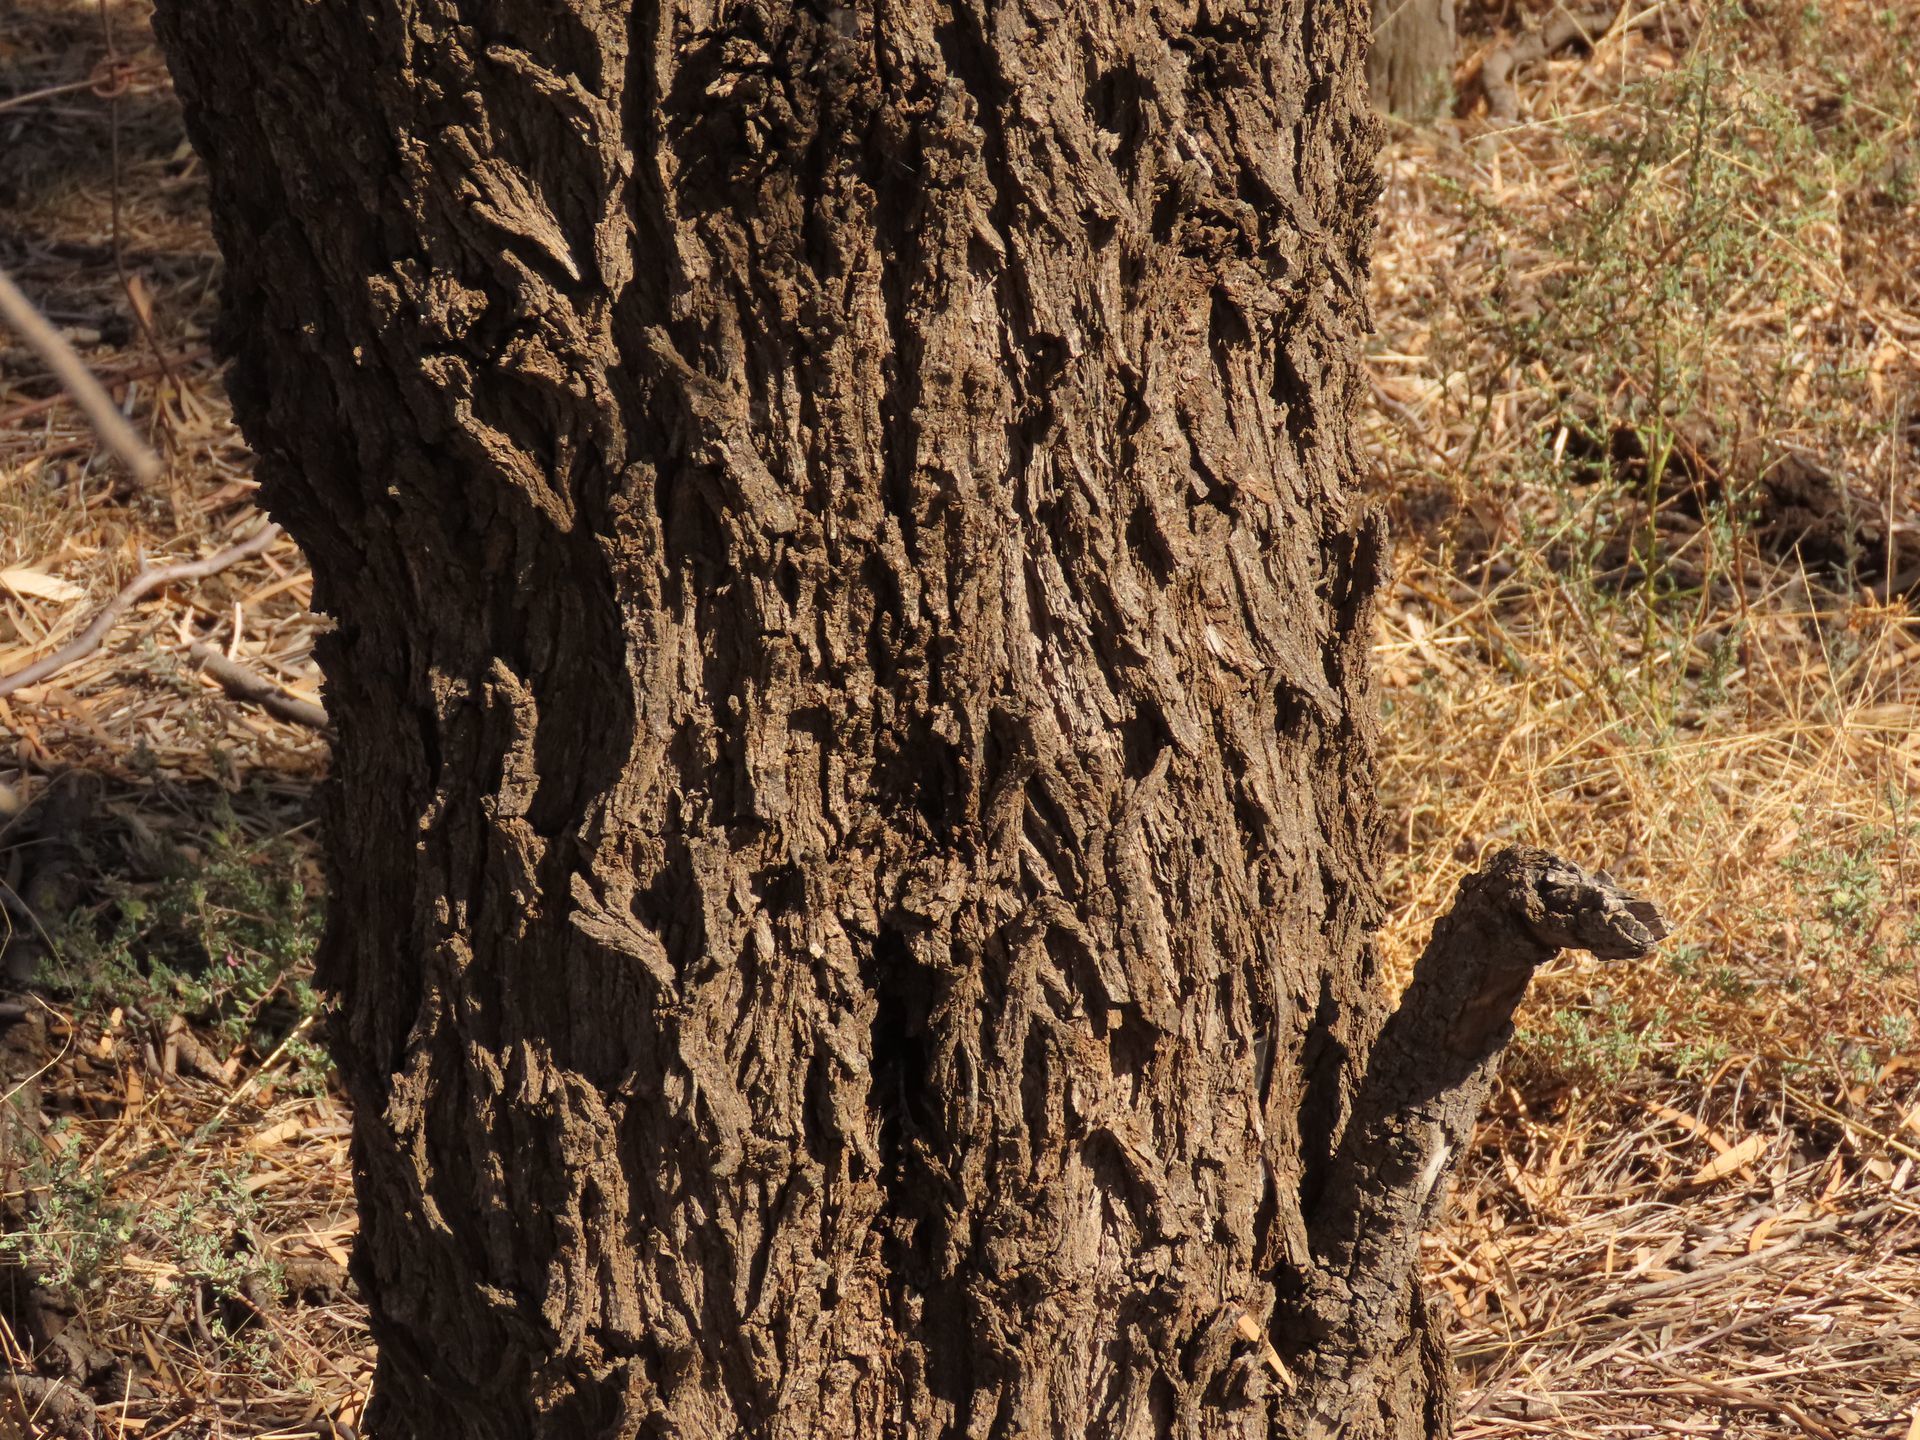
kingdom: Plantae
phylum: Tracheophyta
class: Magnoliopsida
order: Fabales
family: Fabaceae
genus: Acacia
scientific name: Acacia pendula
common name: Weeping myall
